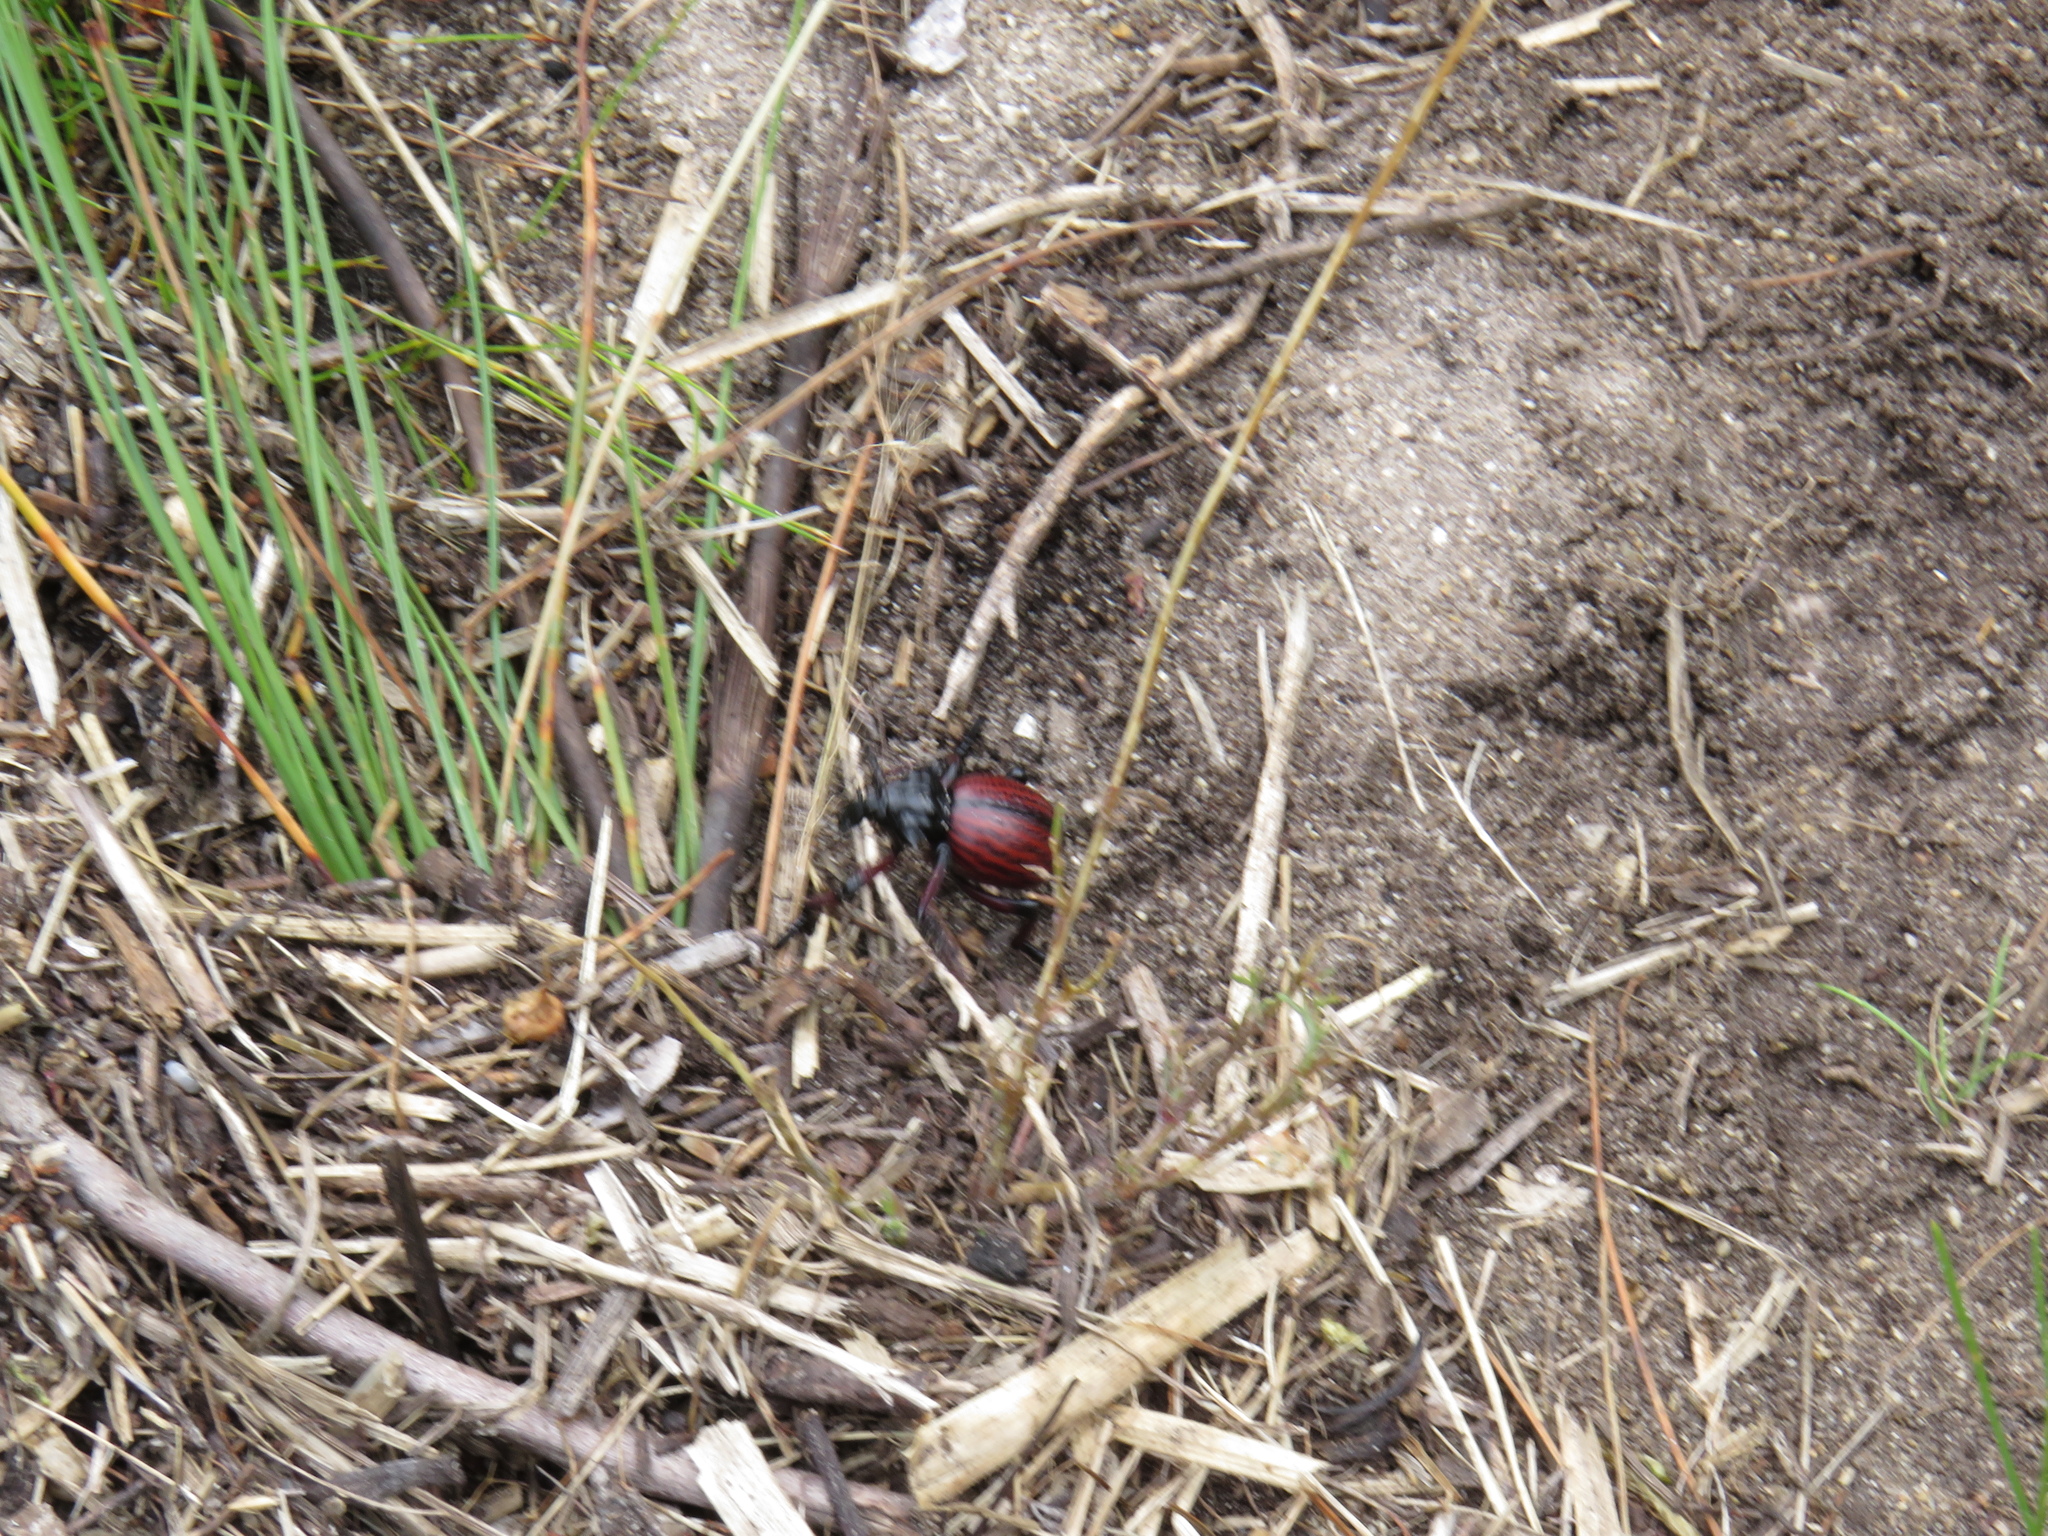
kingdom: Animalia
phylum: Arthropoda
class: Insecta
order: Coleoptera
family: Brachyceridae
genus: Brachycerus
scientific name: Brachycerus obesus
